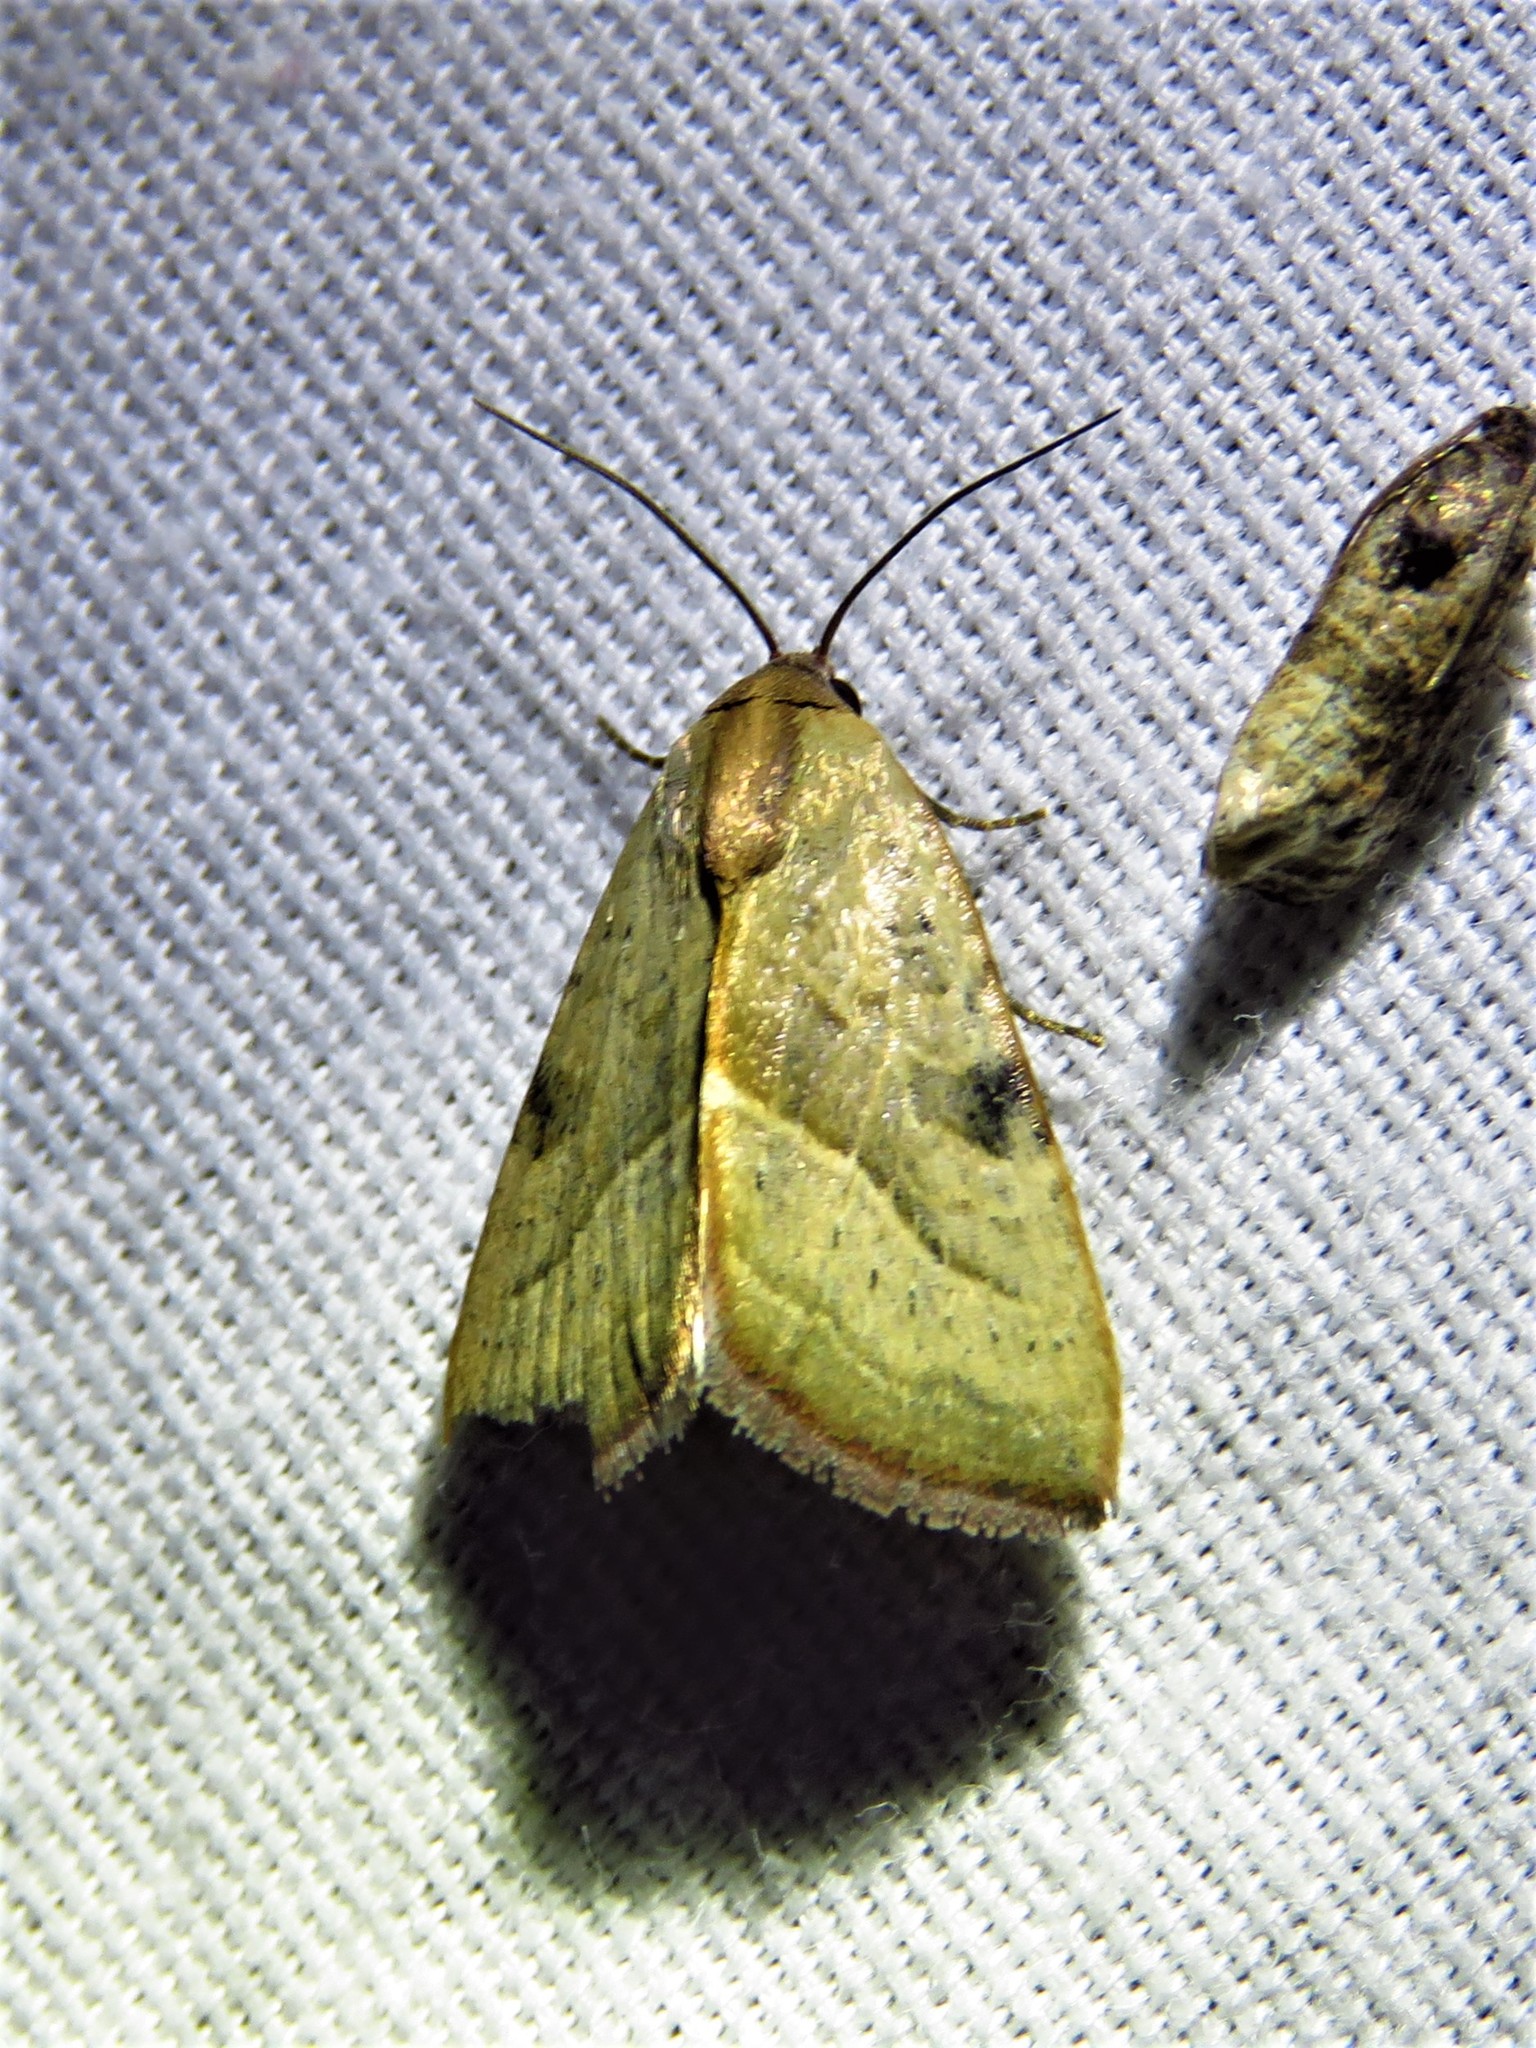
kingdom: Animalia
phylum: Arthropoda
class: Insecta
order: Lepidoptera
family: Noctuidae
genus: Galgula
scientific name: Galgula partita
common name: Wedgeling
